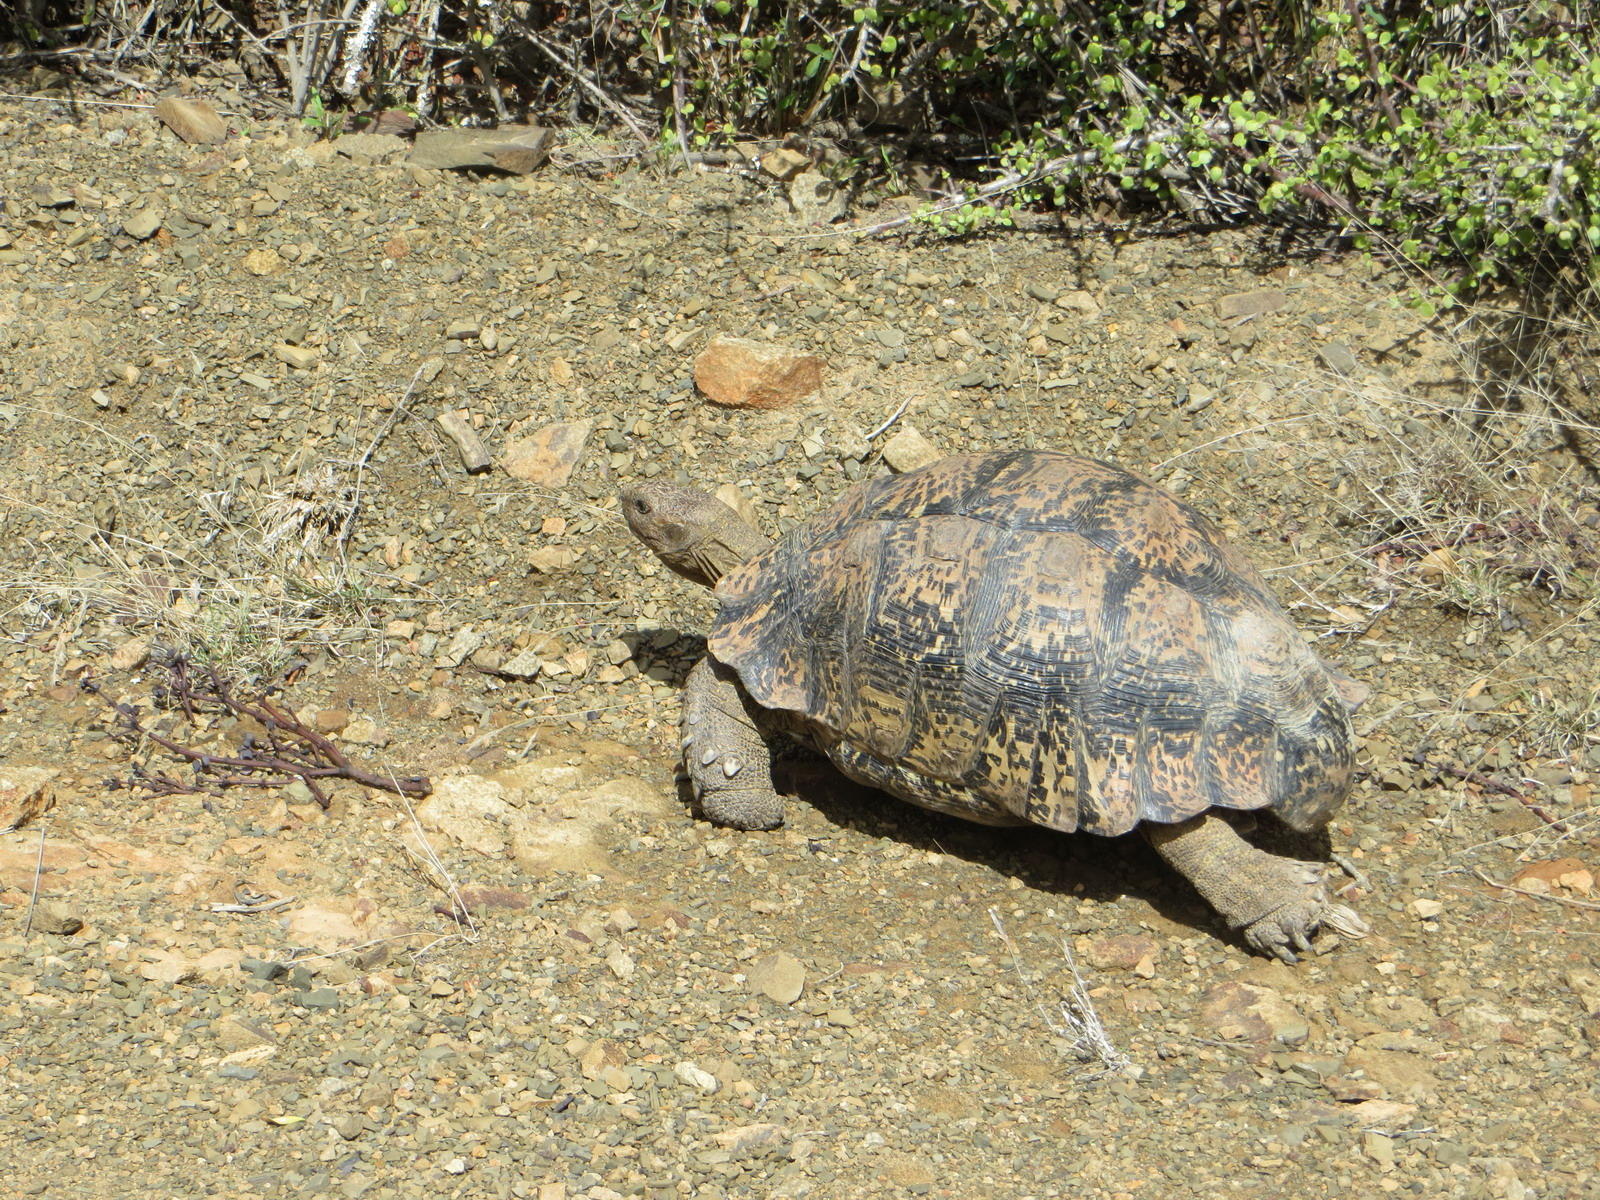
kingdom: Animalia
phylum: Chordata
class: Testudines
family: Testudinidae
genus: Stigmochelys
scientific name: Stigmochelys pardalis
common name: Leopard tortoise
